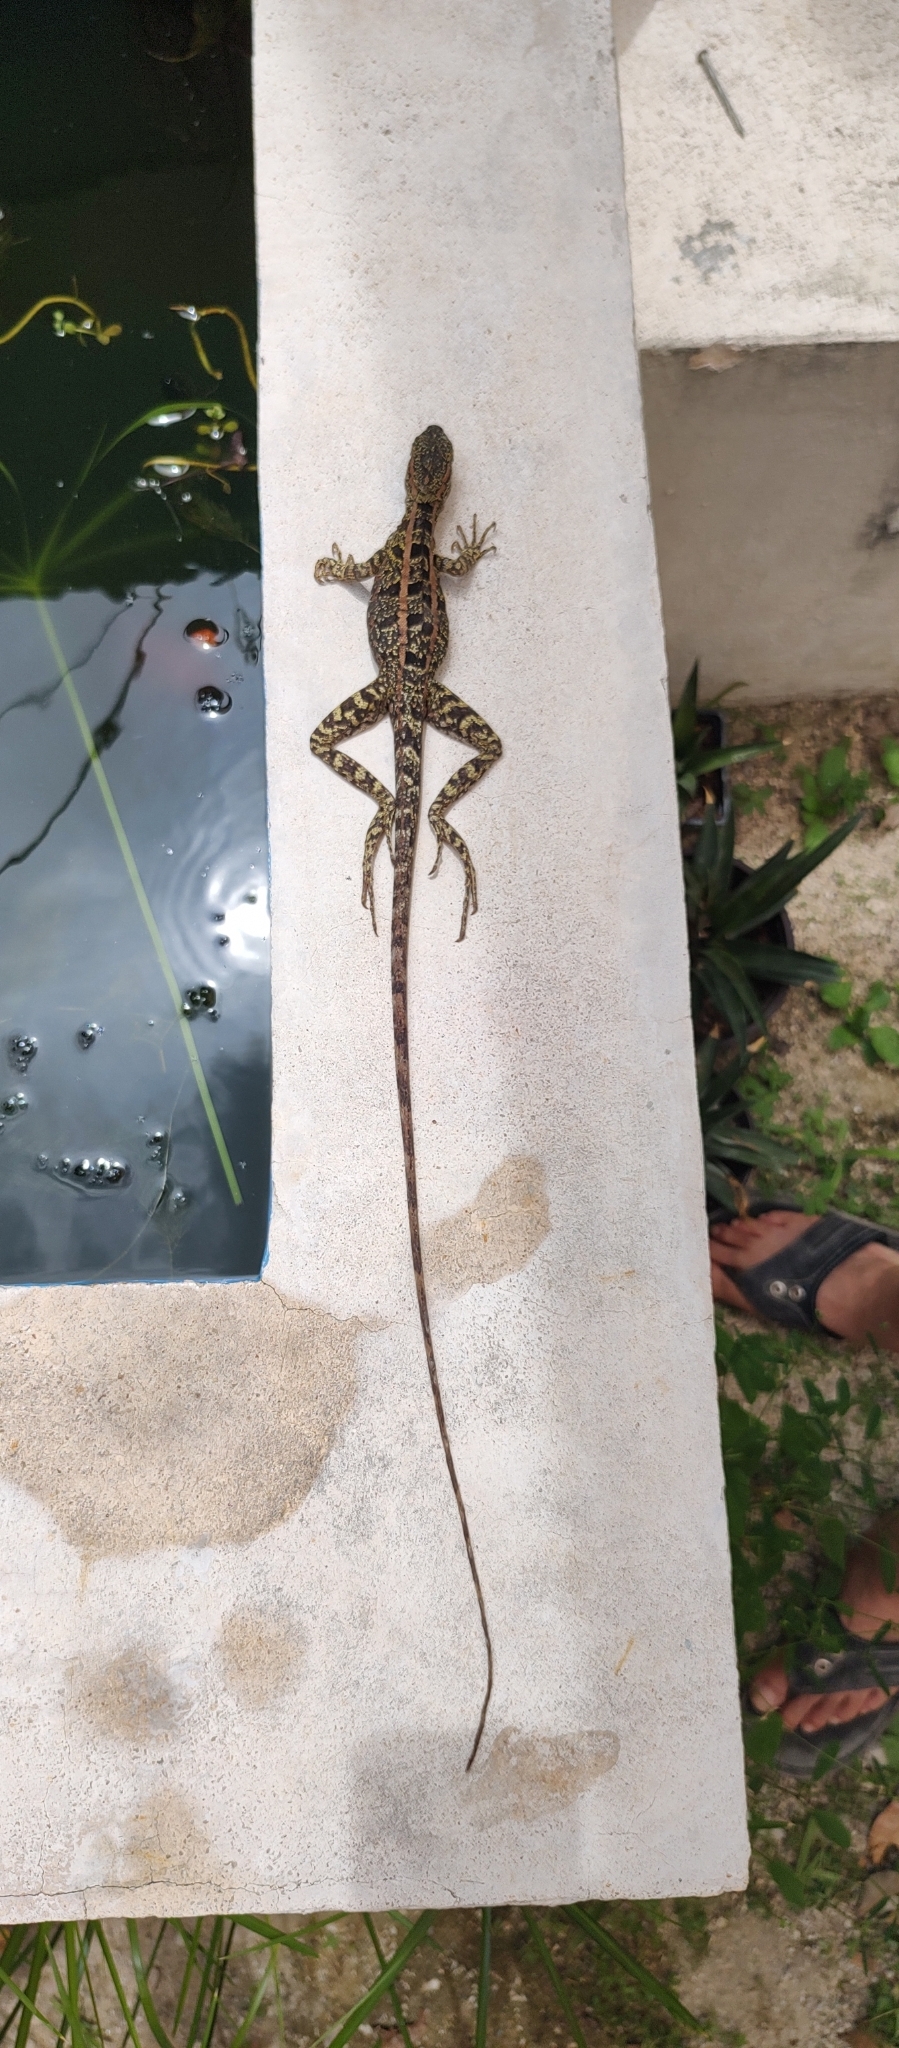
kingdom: Animalia
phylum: Chordata
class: Squamata
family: Corytophanidae
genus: Basiliscus
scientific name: Basiliscus vittatus
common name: Brown basilisk
